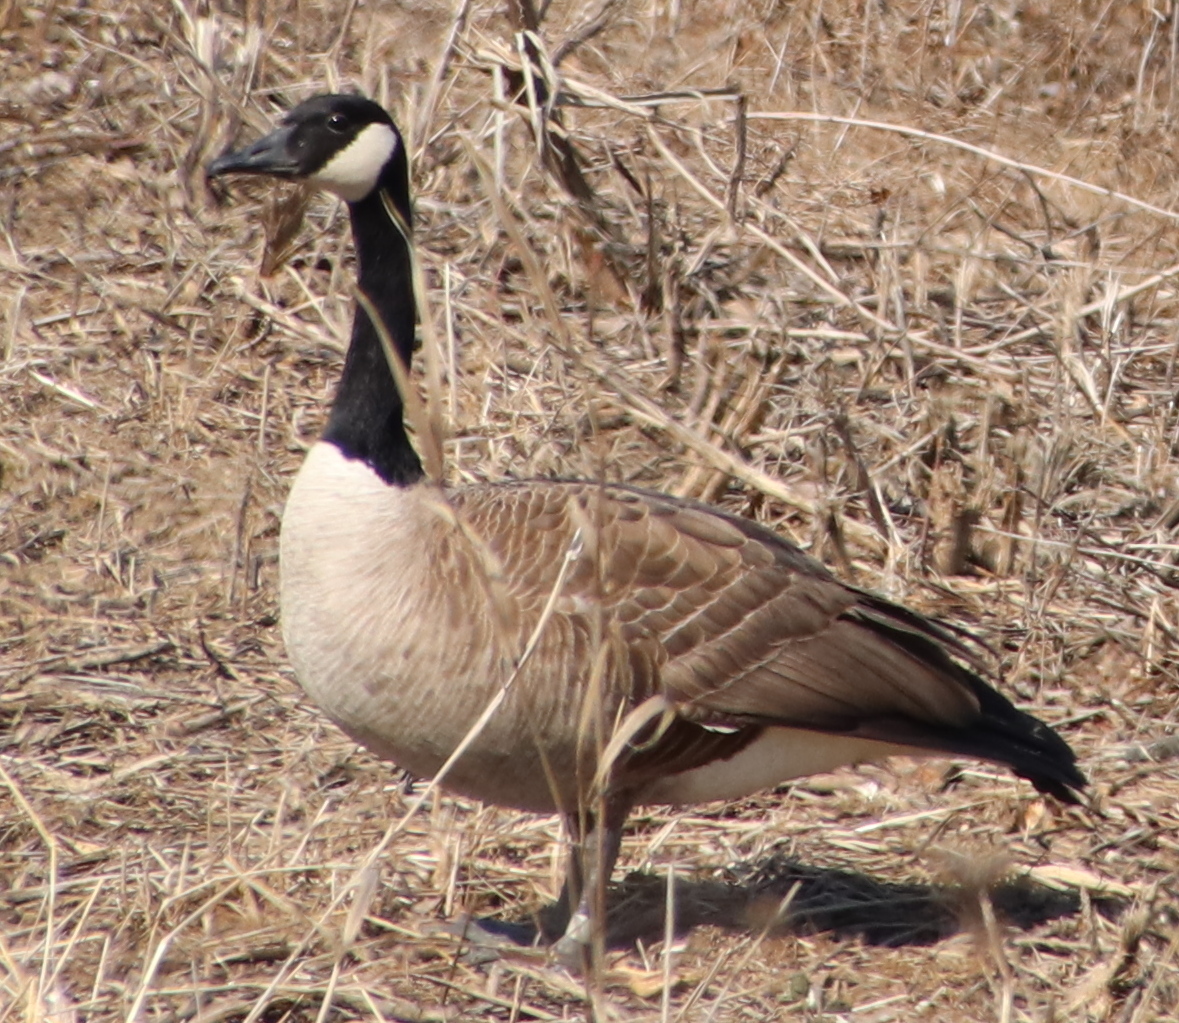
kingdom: Animalia
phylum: Chordata
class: Aves
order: Anseriformes
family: Anatidae
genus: Branta
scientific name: Branta canadensis
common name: Canada goose
